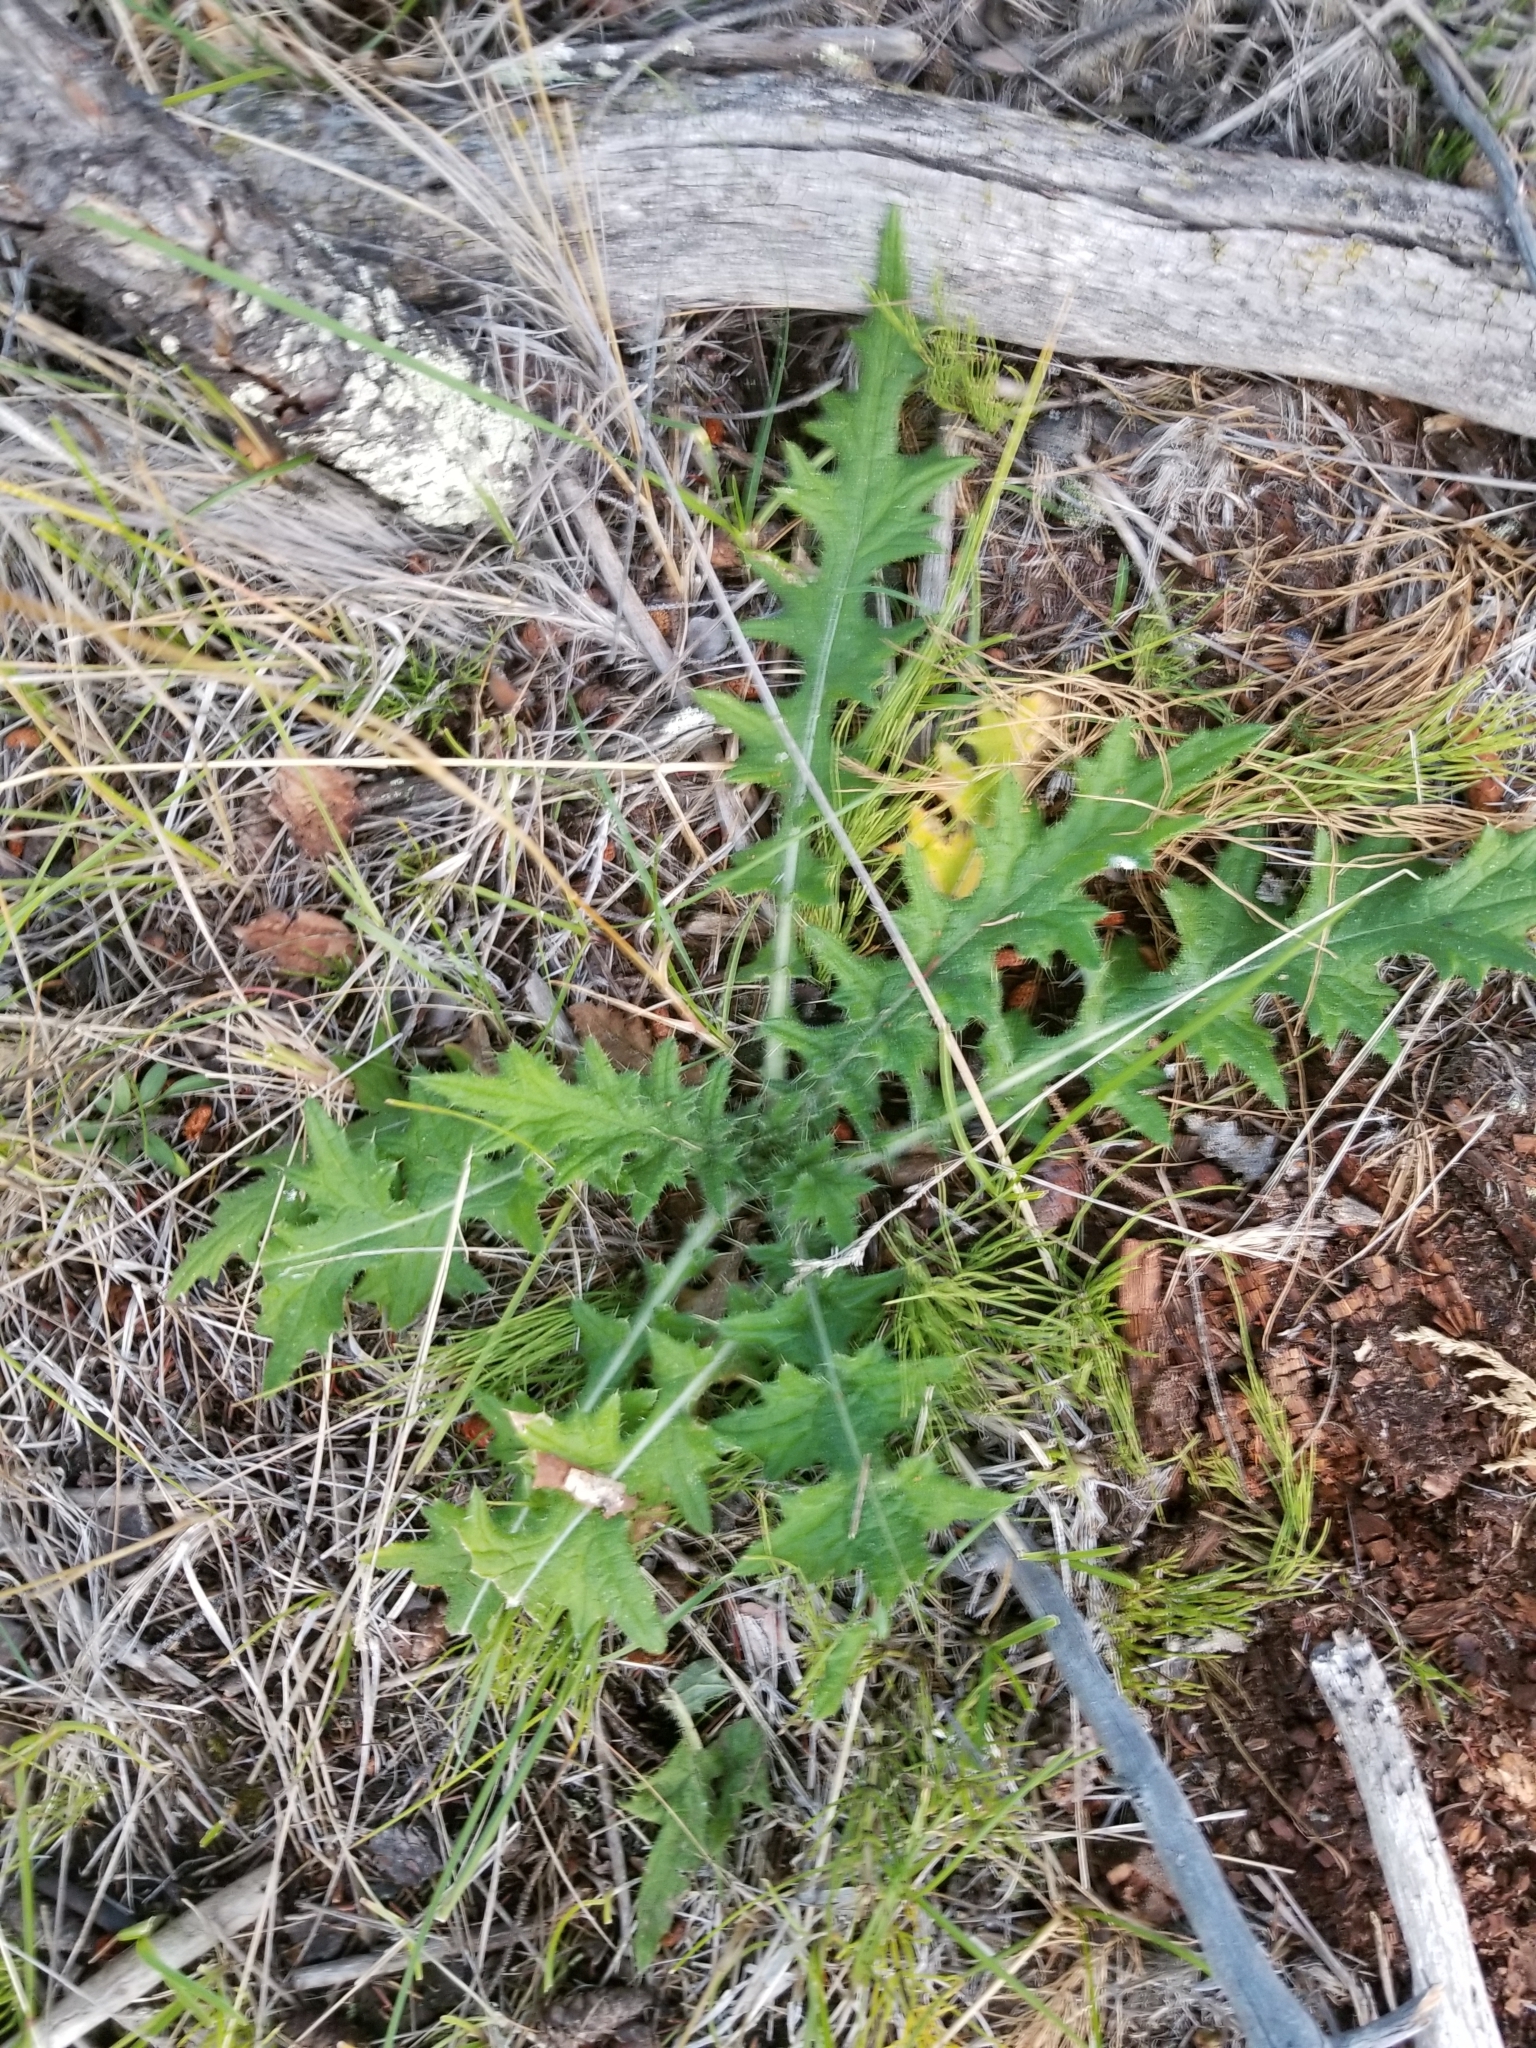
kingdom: Plantae
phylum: Tracheophyta
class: Magnoliopsida
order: Asterales
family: Asteraceae
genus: Cirsium
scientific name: Cirsium vulgare
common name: Bull thistle
